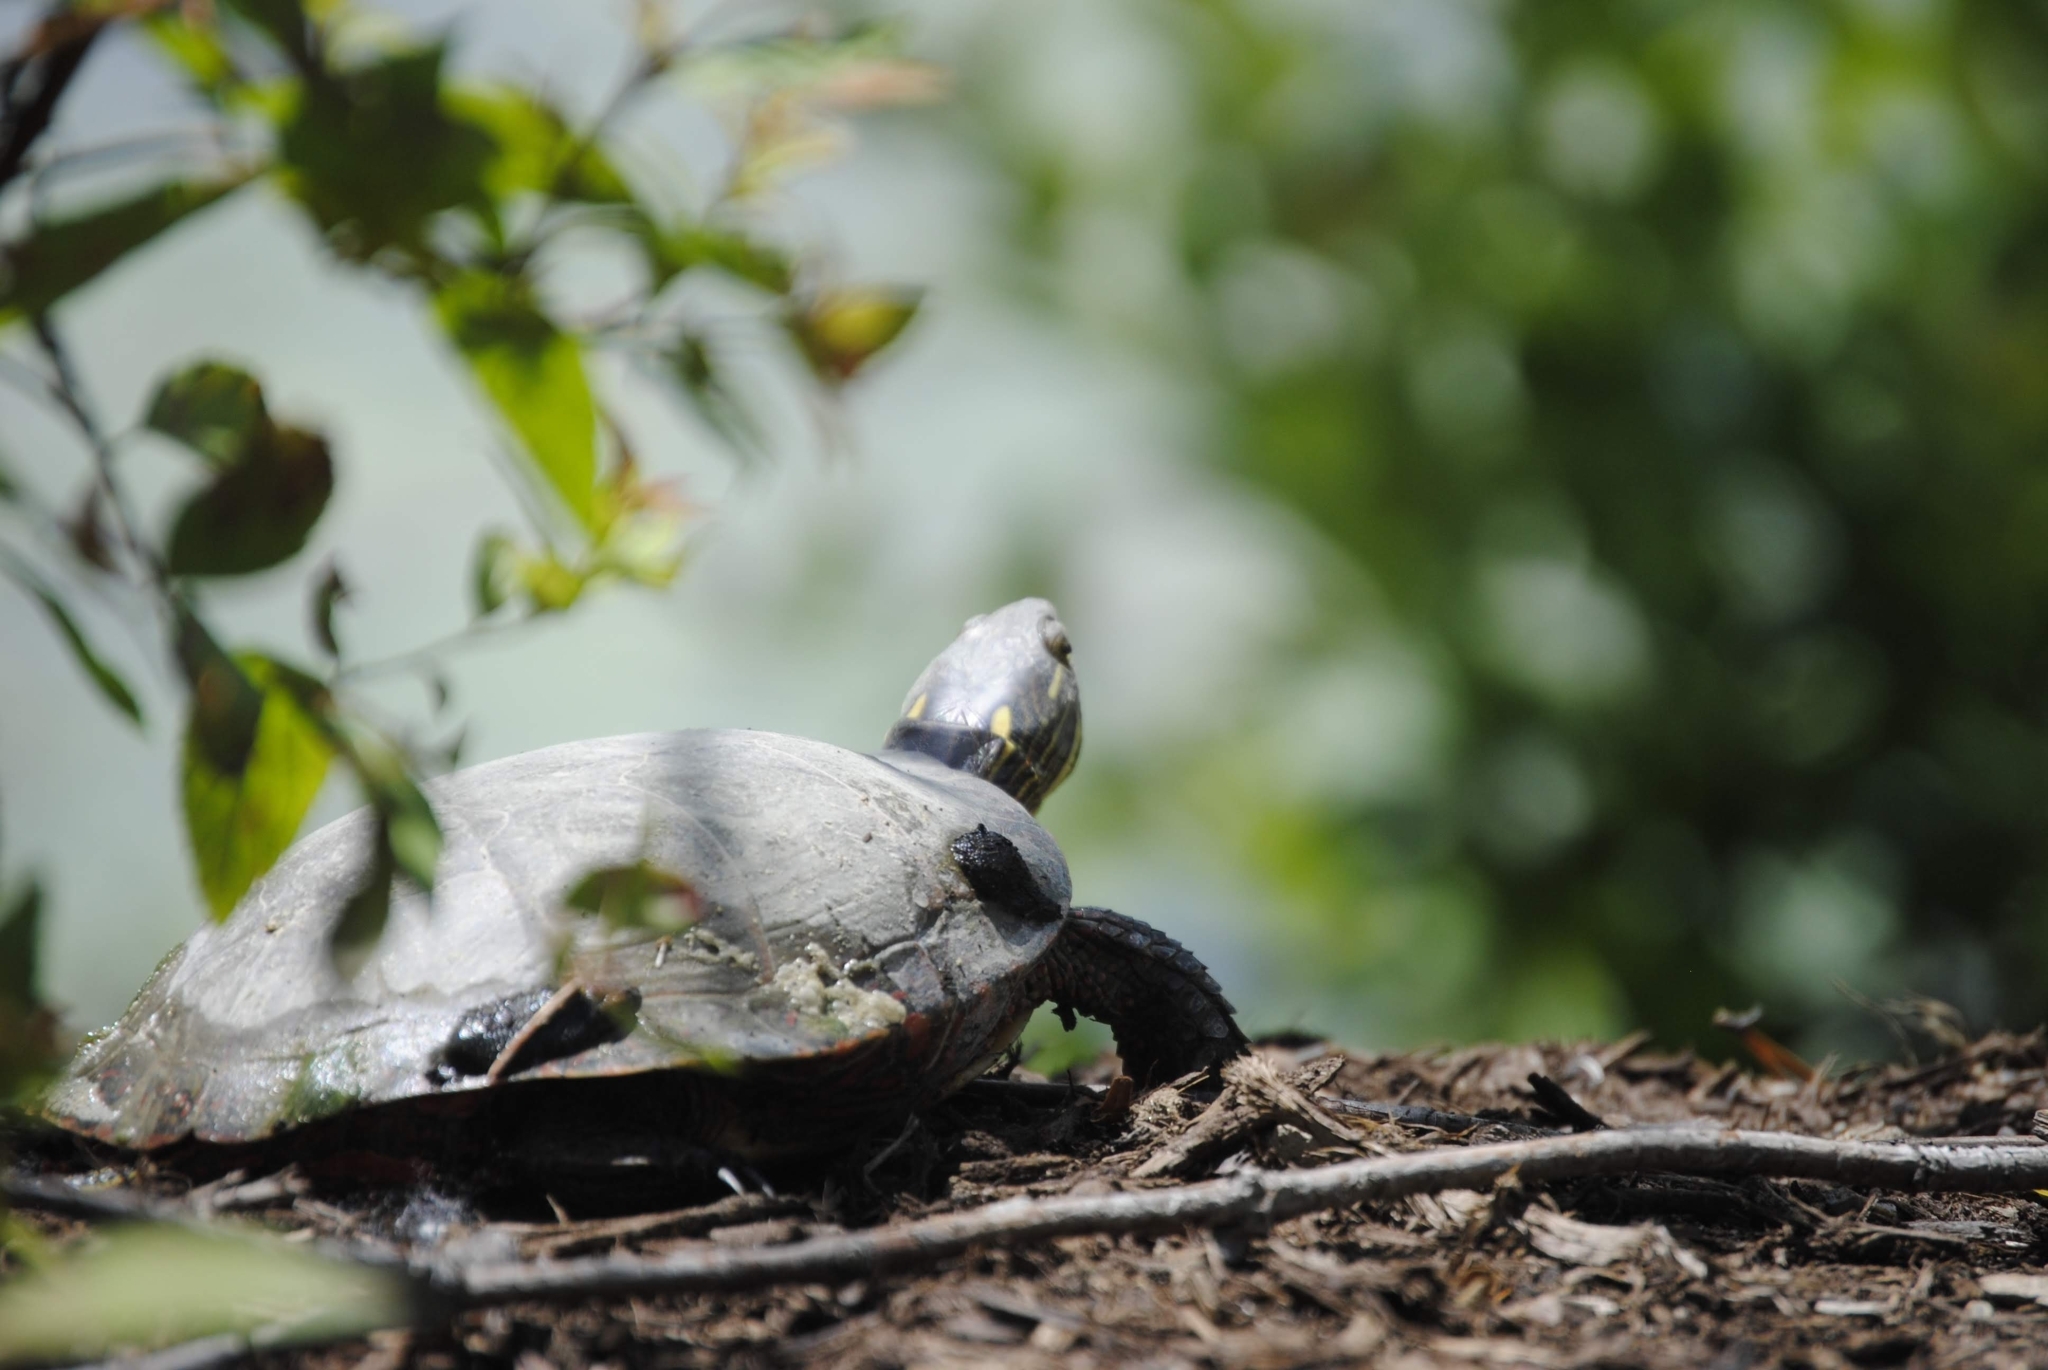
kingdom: Animalia
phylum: Chordata
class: Testudines
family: Emydidae
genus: Chrysemys
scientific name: Chrysemys picta
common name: Painted turtle
